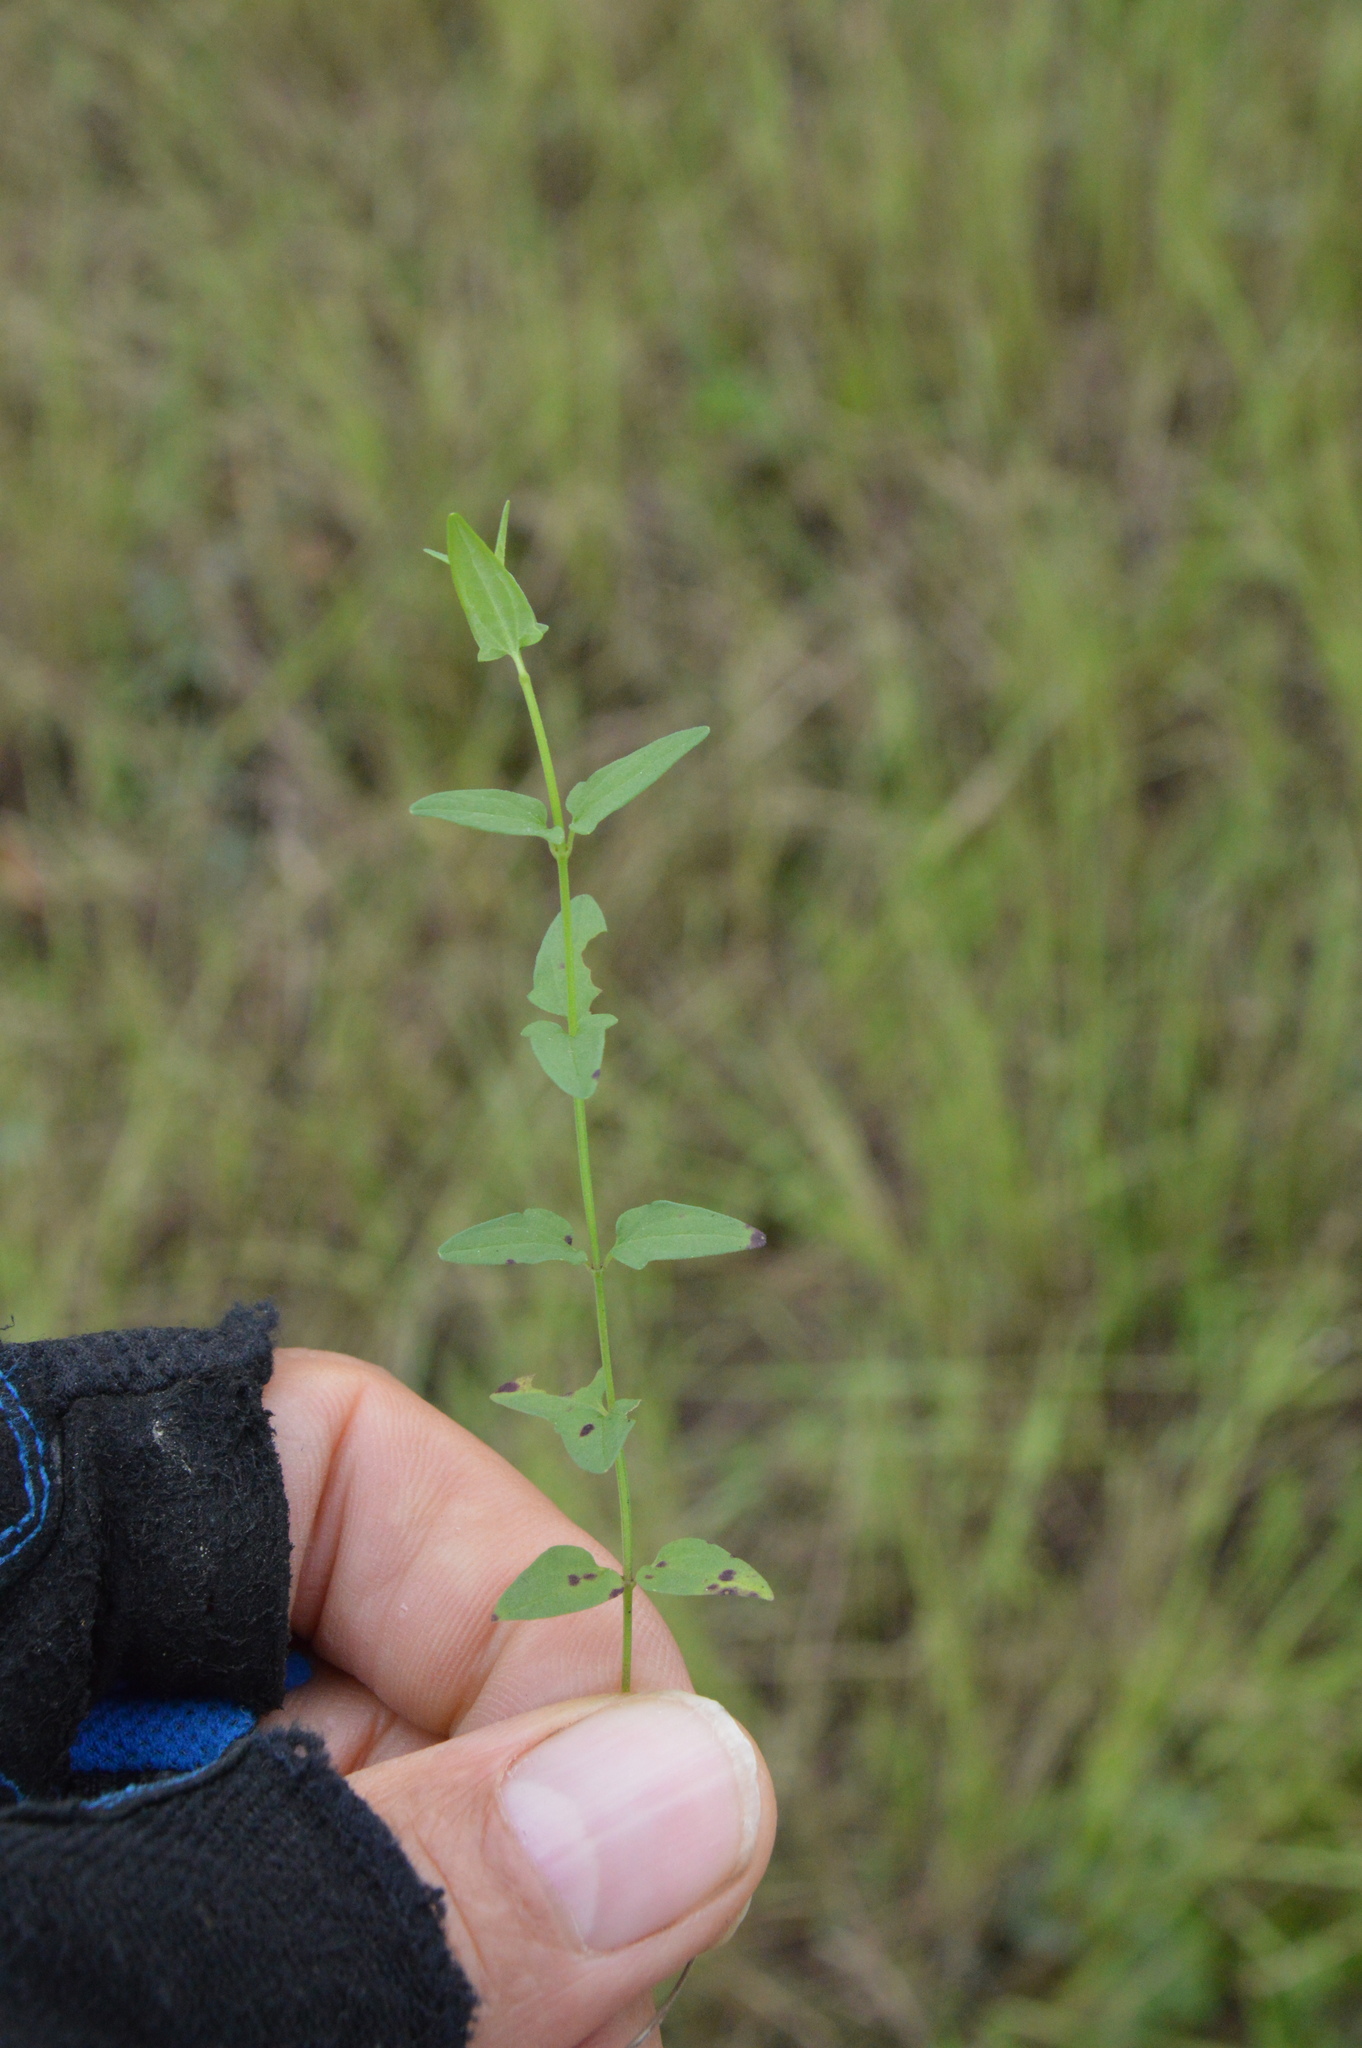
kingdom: Plantae
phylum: Tracheophyta
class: Magnoliopsida
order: Lamiales
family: Lamiaceae
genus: Scutellaria
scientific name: Scutellaria racemosa
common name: South american skullcap
